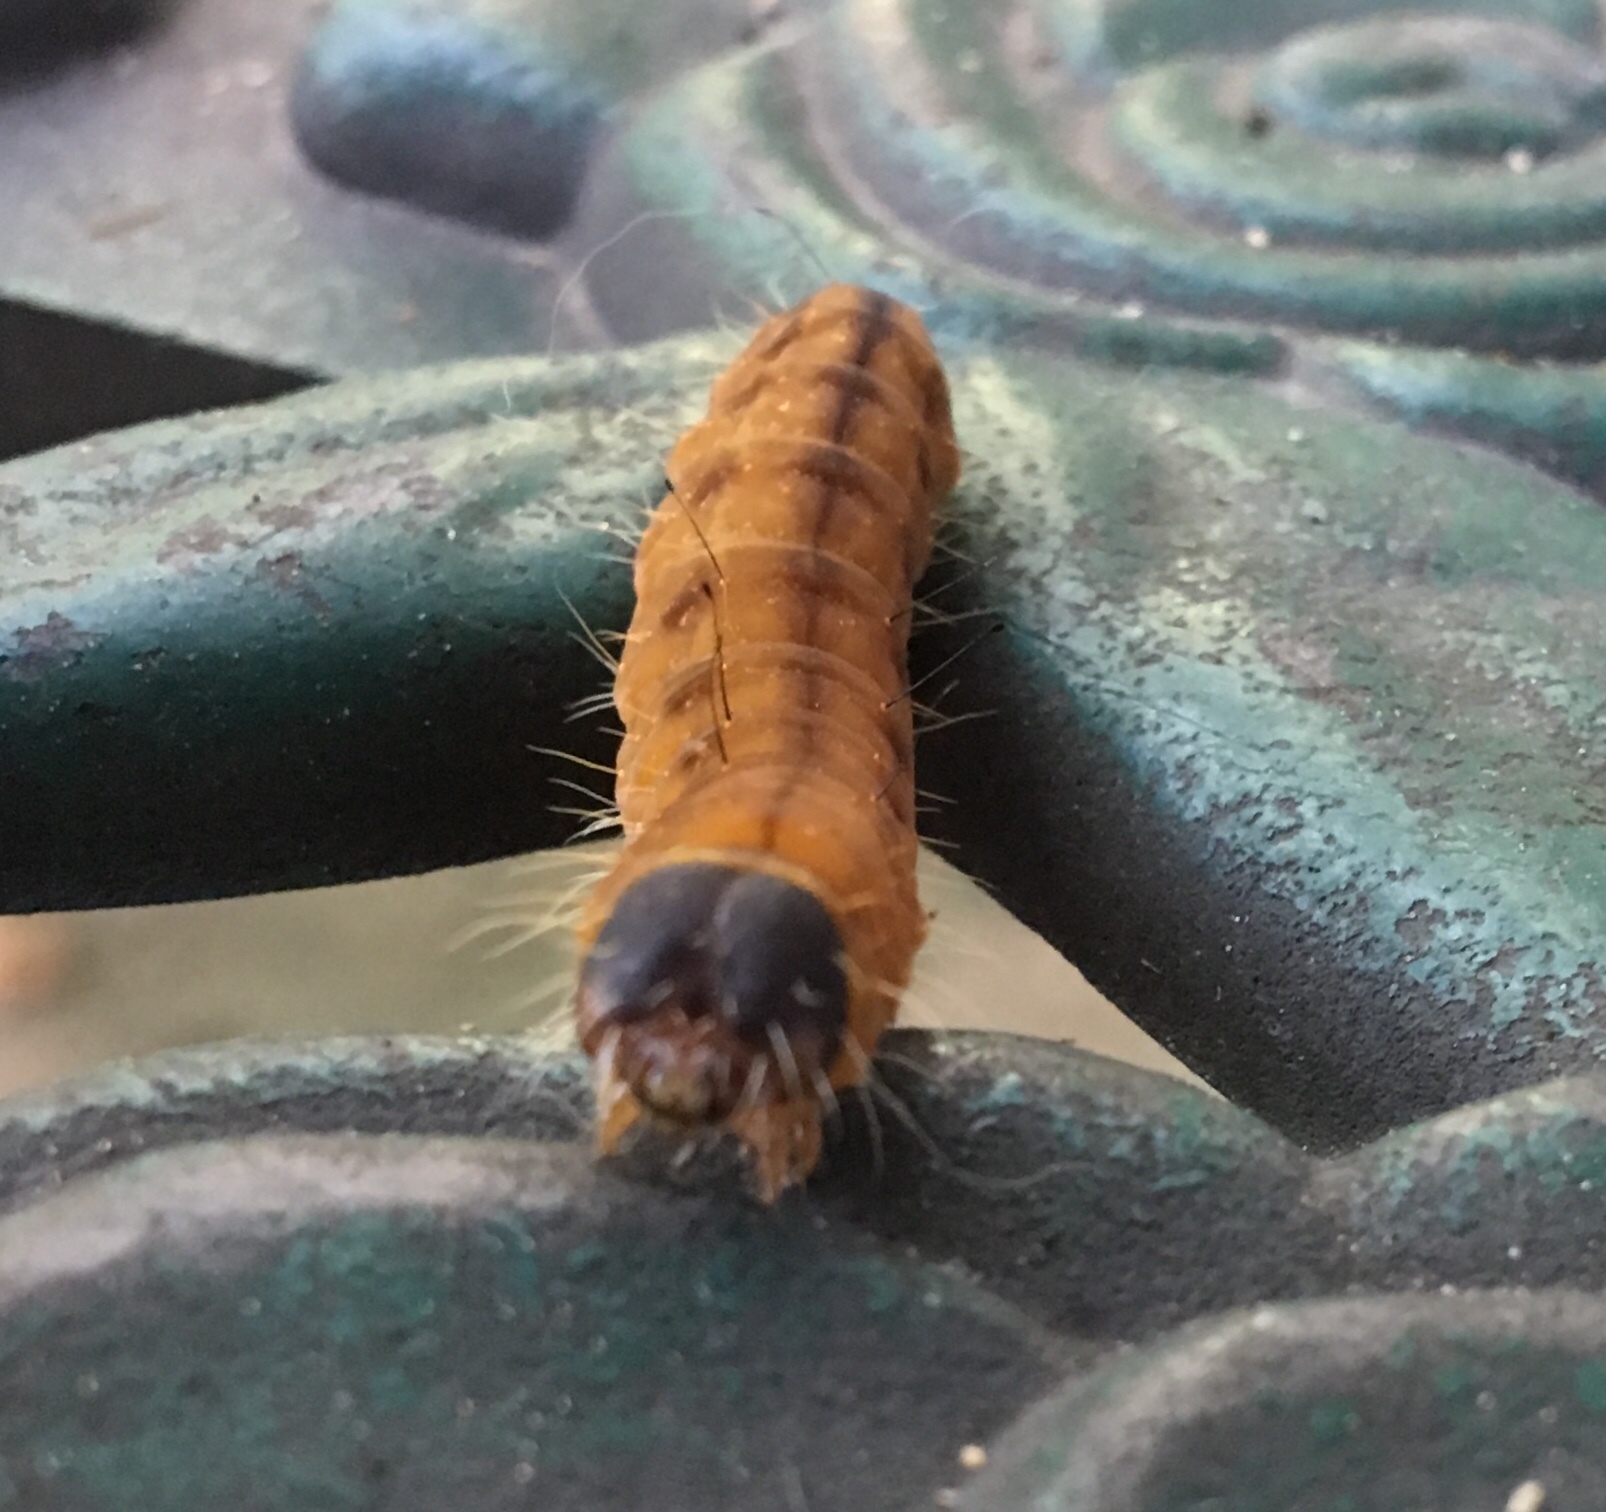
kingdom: Animalia
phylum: Arthropoda
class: Insecta
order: Lepidoptera
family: Noctuidae
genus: Acronicta
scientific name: Acronicta afflicta
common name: Afflicted dagger moth
